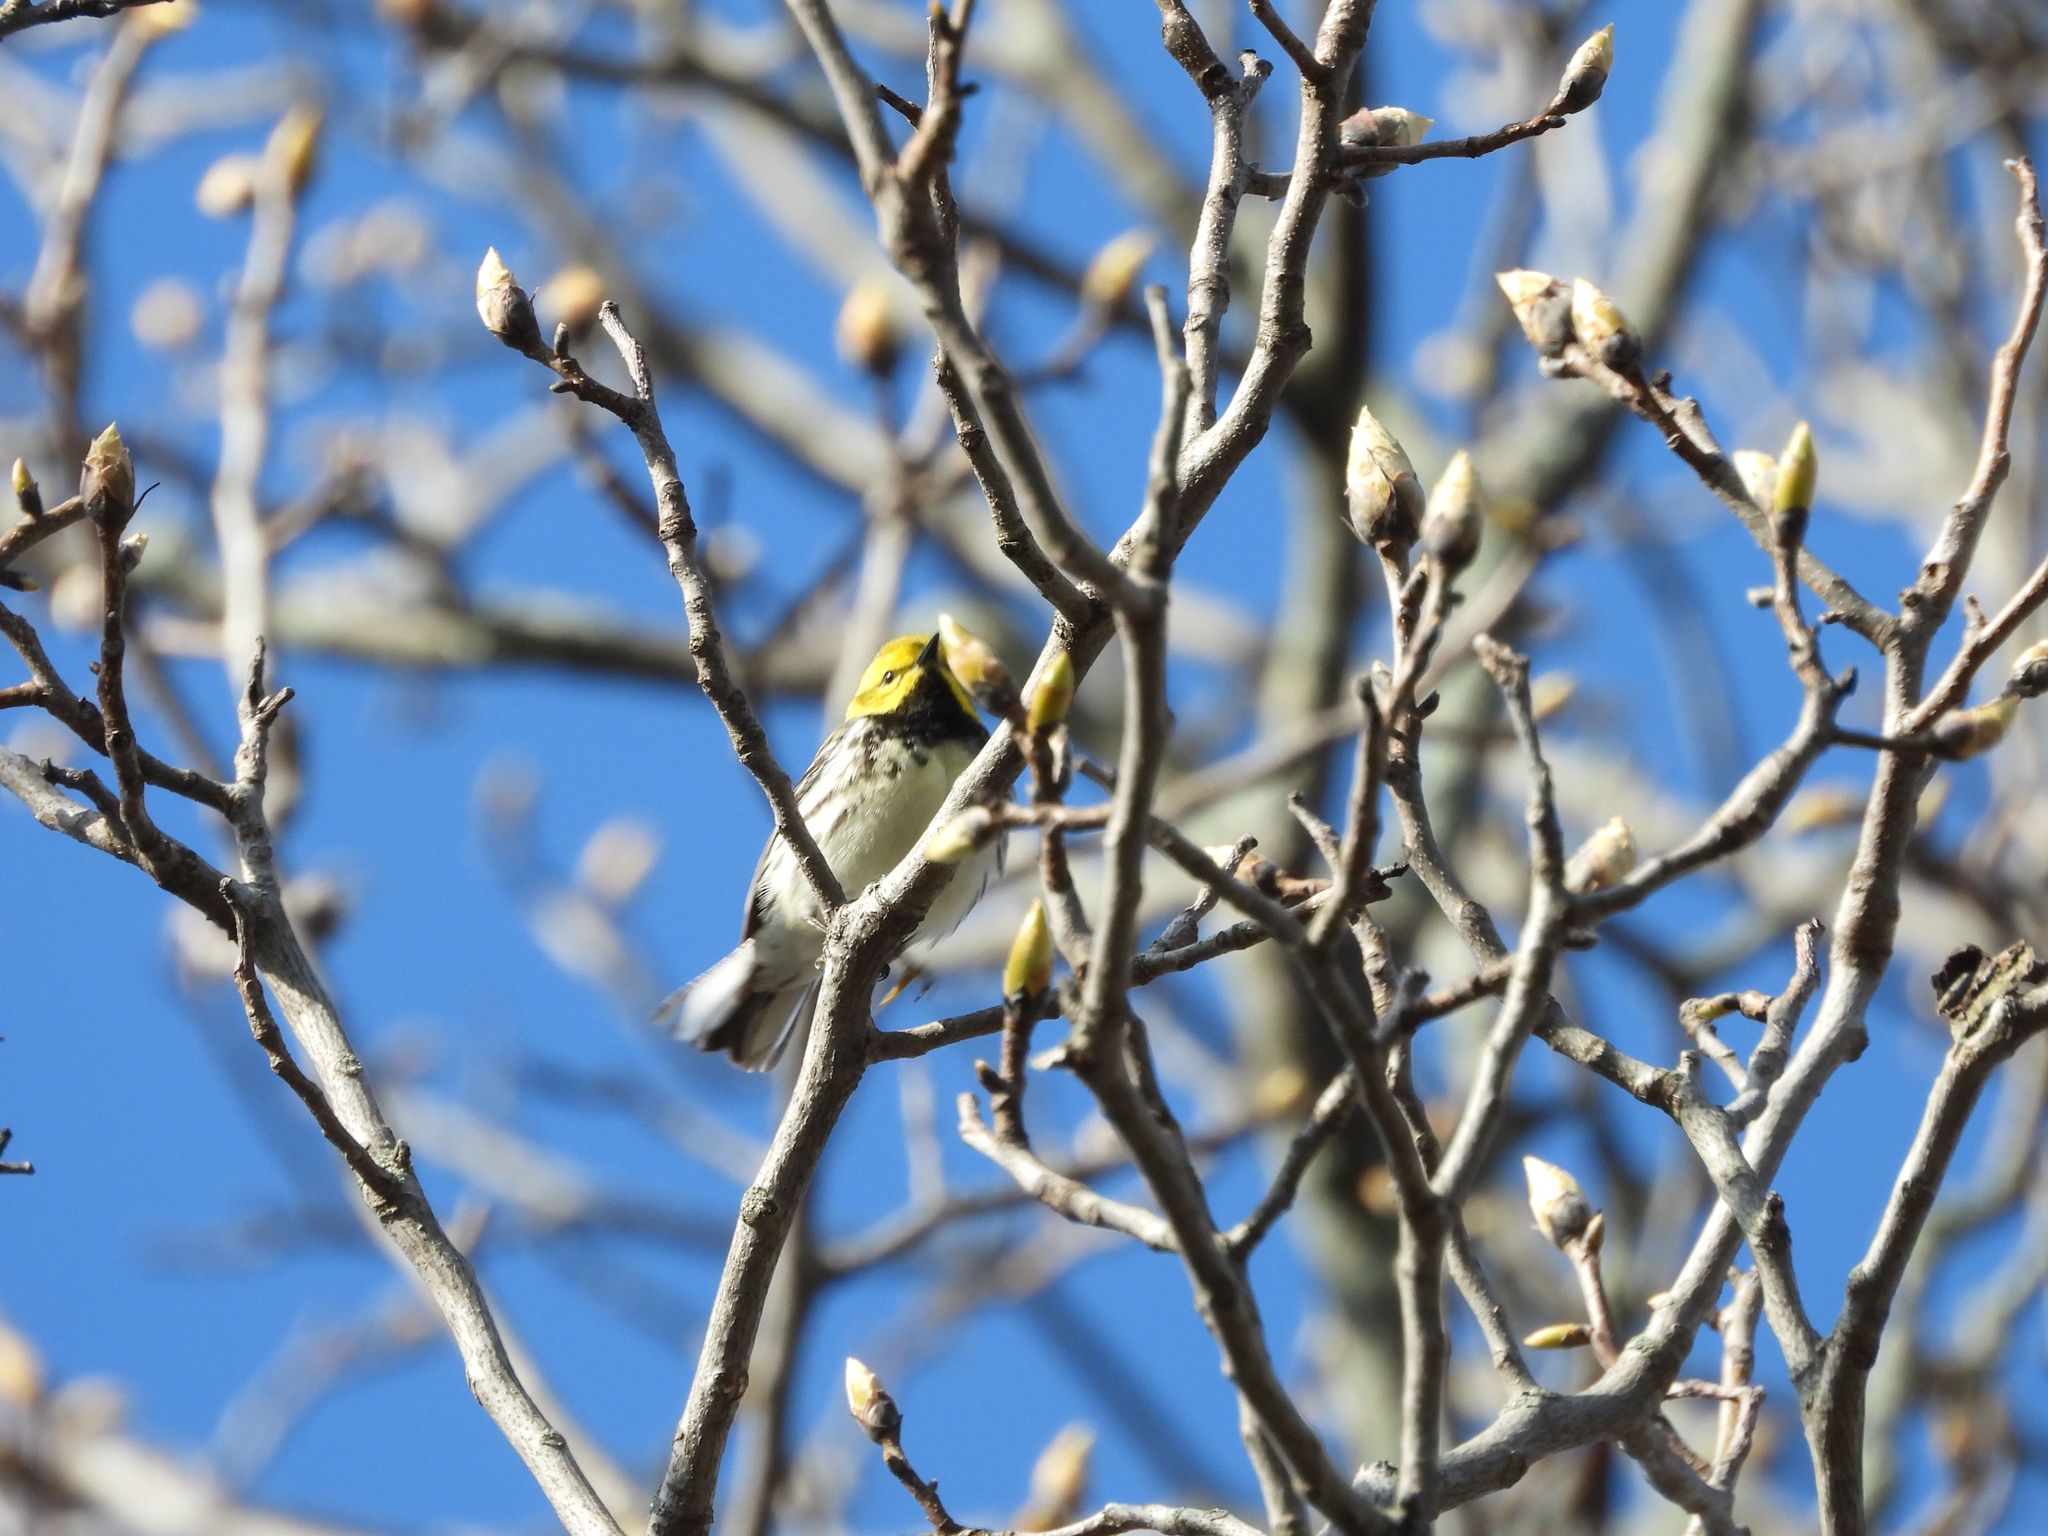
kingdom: Animalia
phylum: Chordata
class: Aves
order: Passeriformes
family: Parulidae
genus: Setophaga
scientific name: Setophaga virens
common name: Black-throated green warbler
